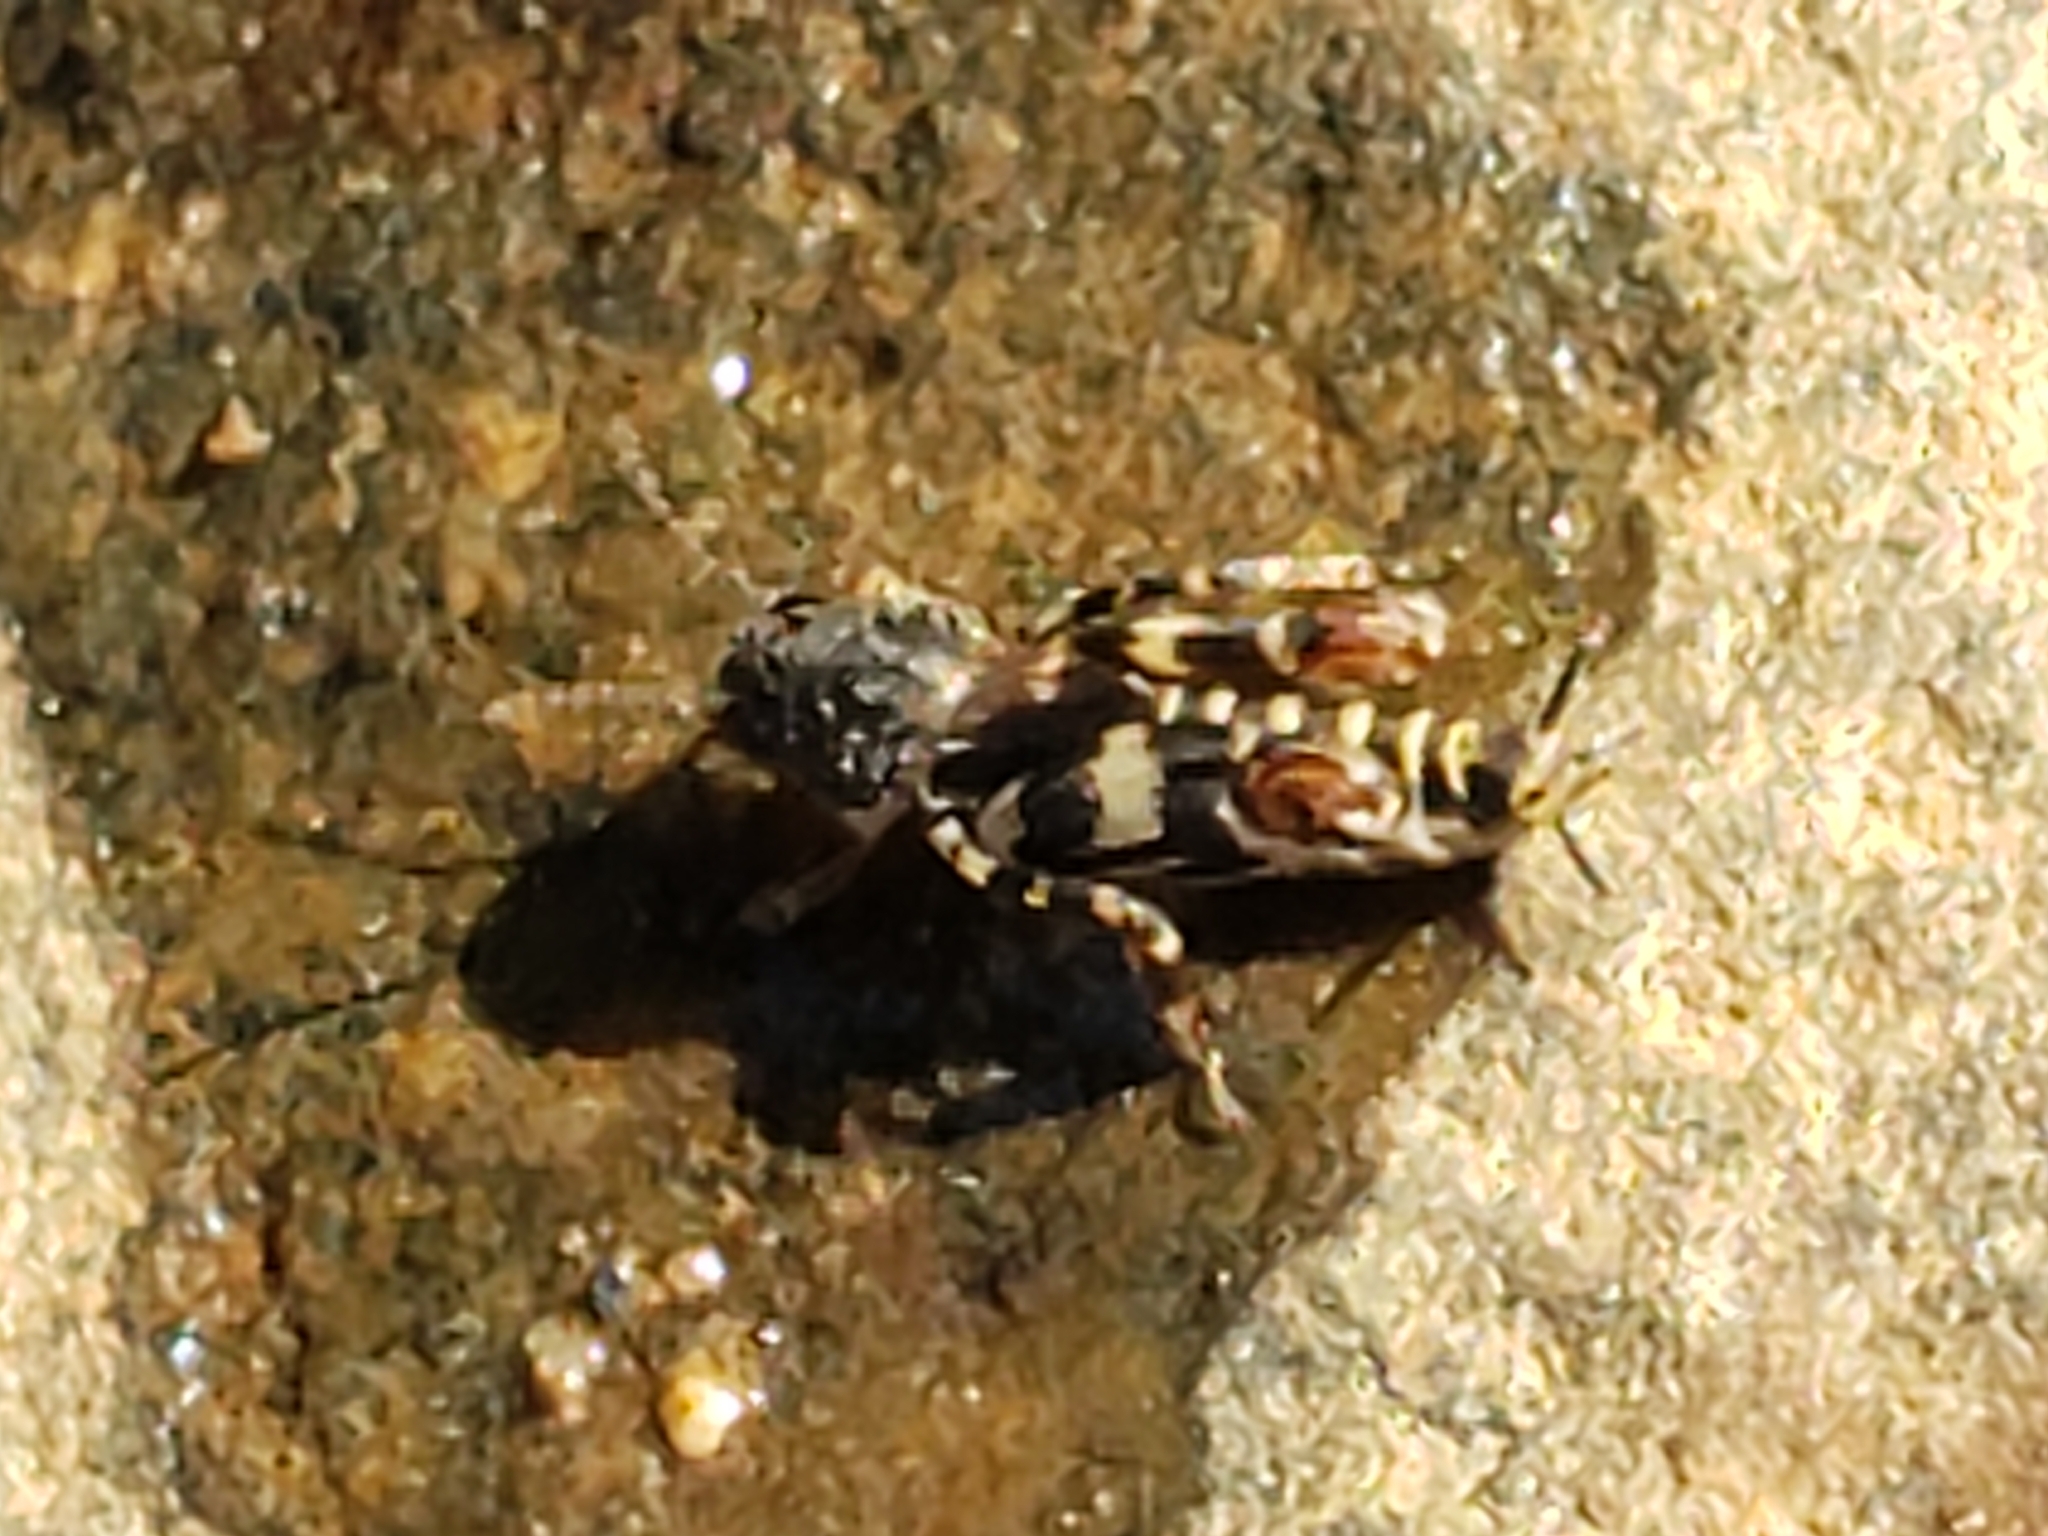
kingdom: Animalia
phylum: Arthropoda
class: Insecta
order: Orthoptera
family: Tridactylidae
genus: Ellipes
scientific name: Ellipes minuta
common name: Minute pygmy locust
